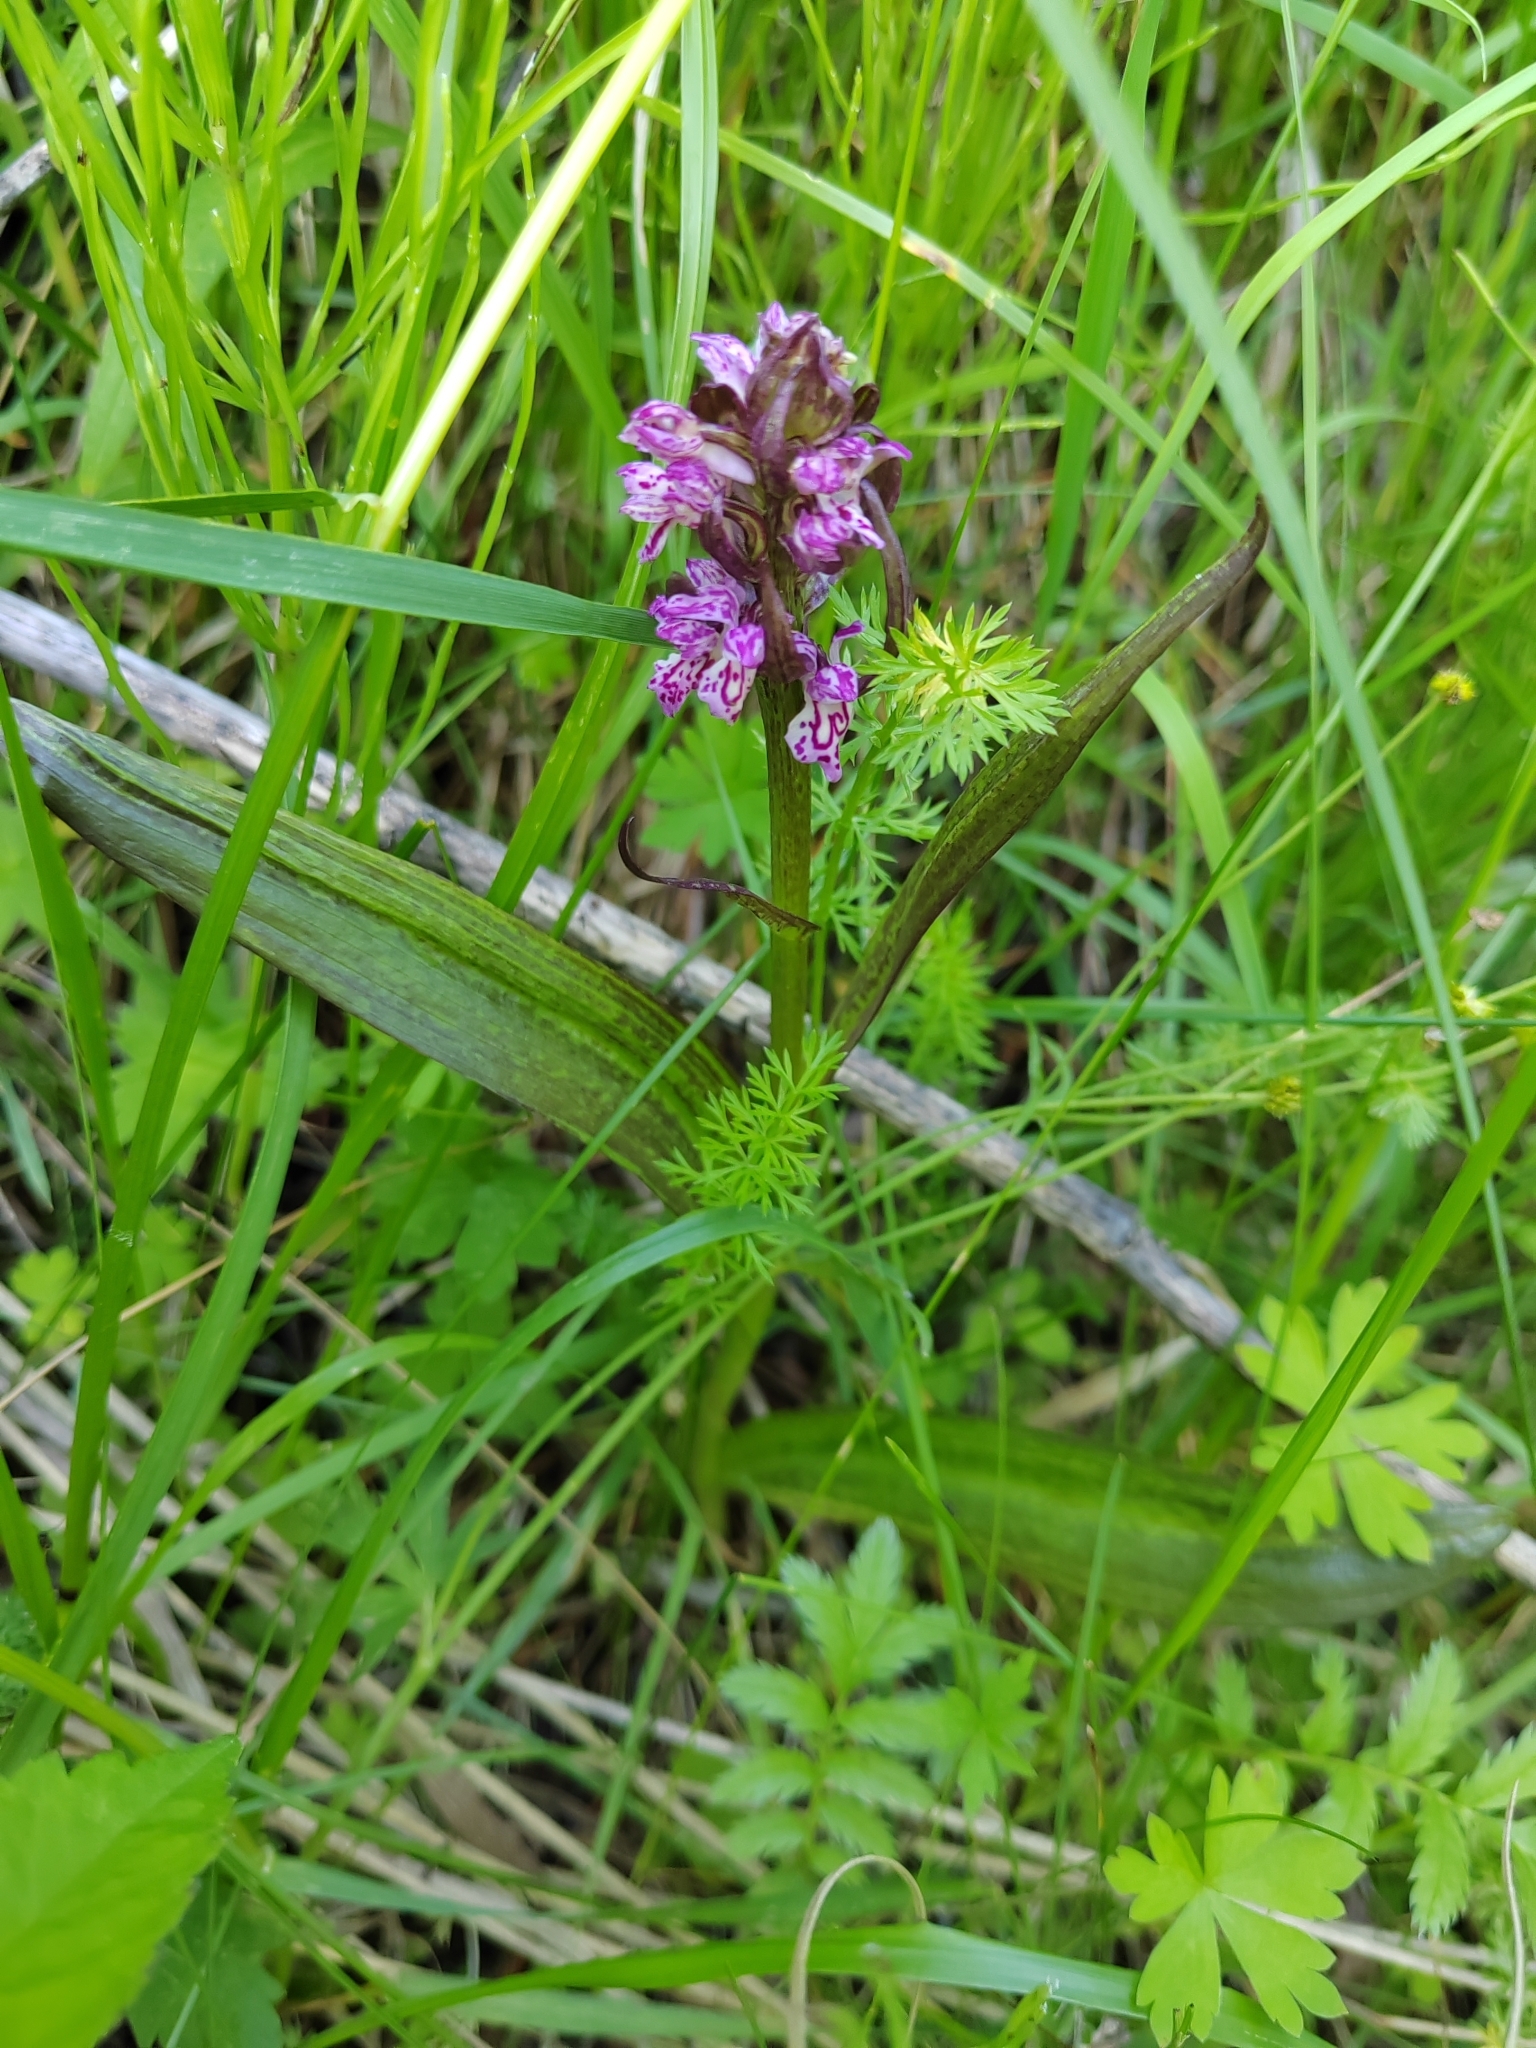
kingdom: Plantae
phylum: Tracheophyta
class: Liliopsida
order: Asparagales
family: Orchidaceae
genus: Dactylorhiza
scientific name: Dactylorhiza incarnata
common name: Early marsh-orchid
